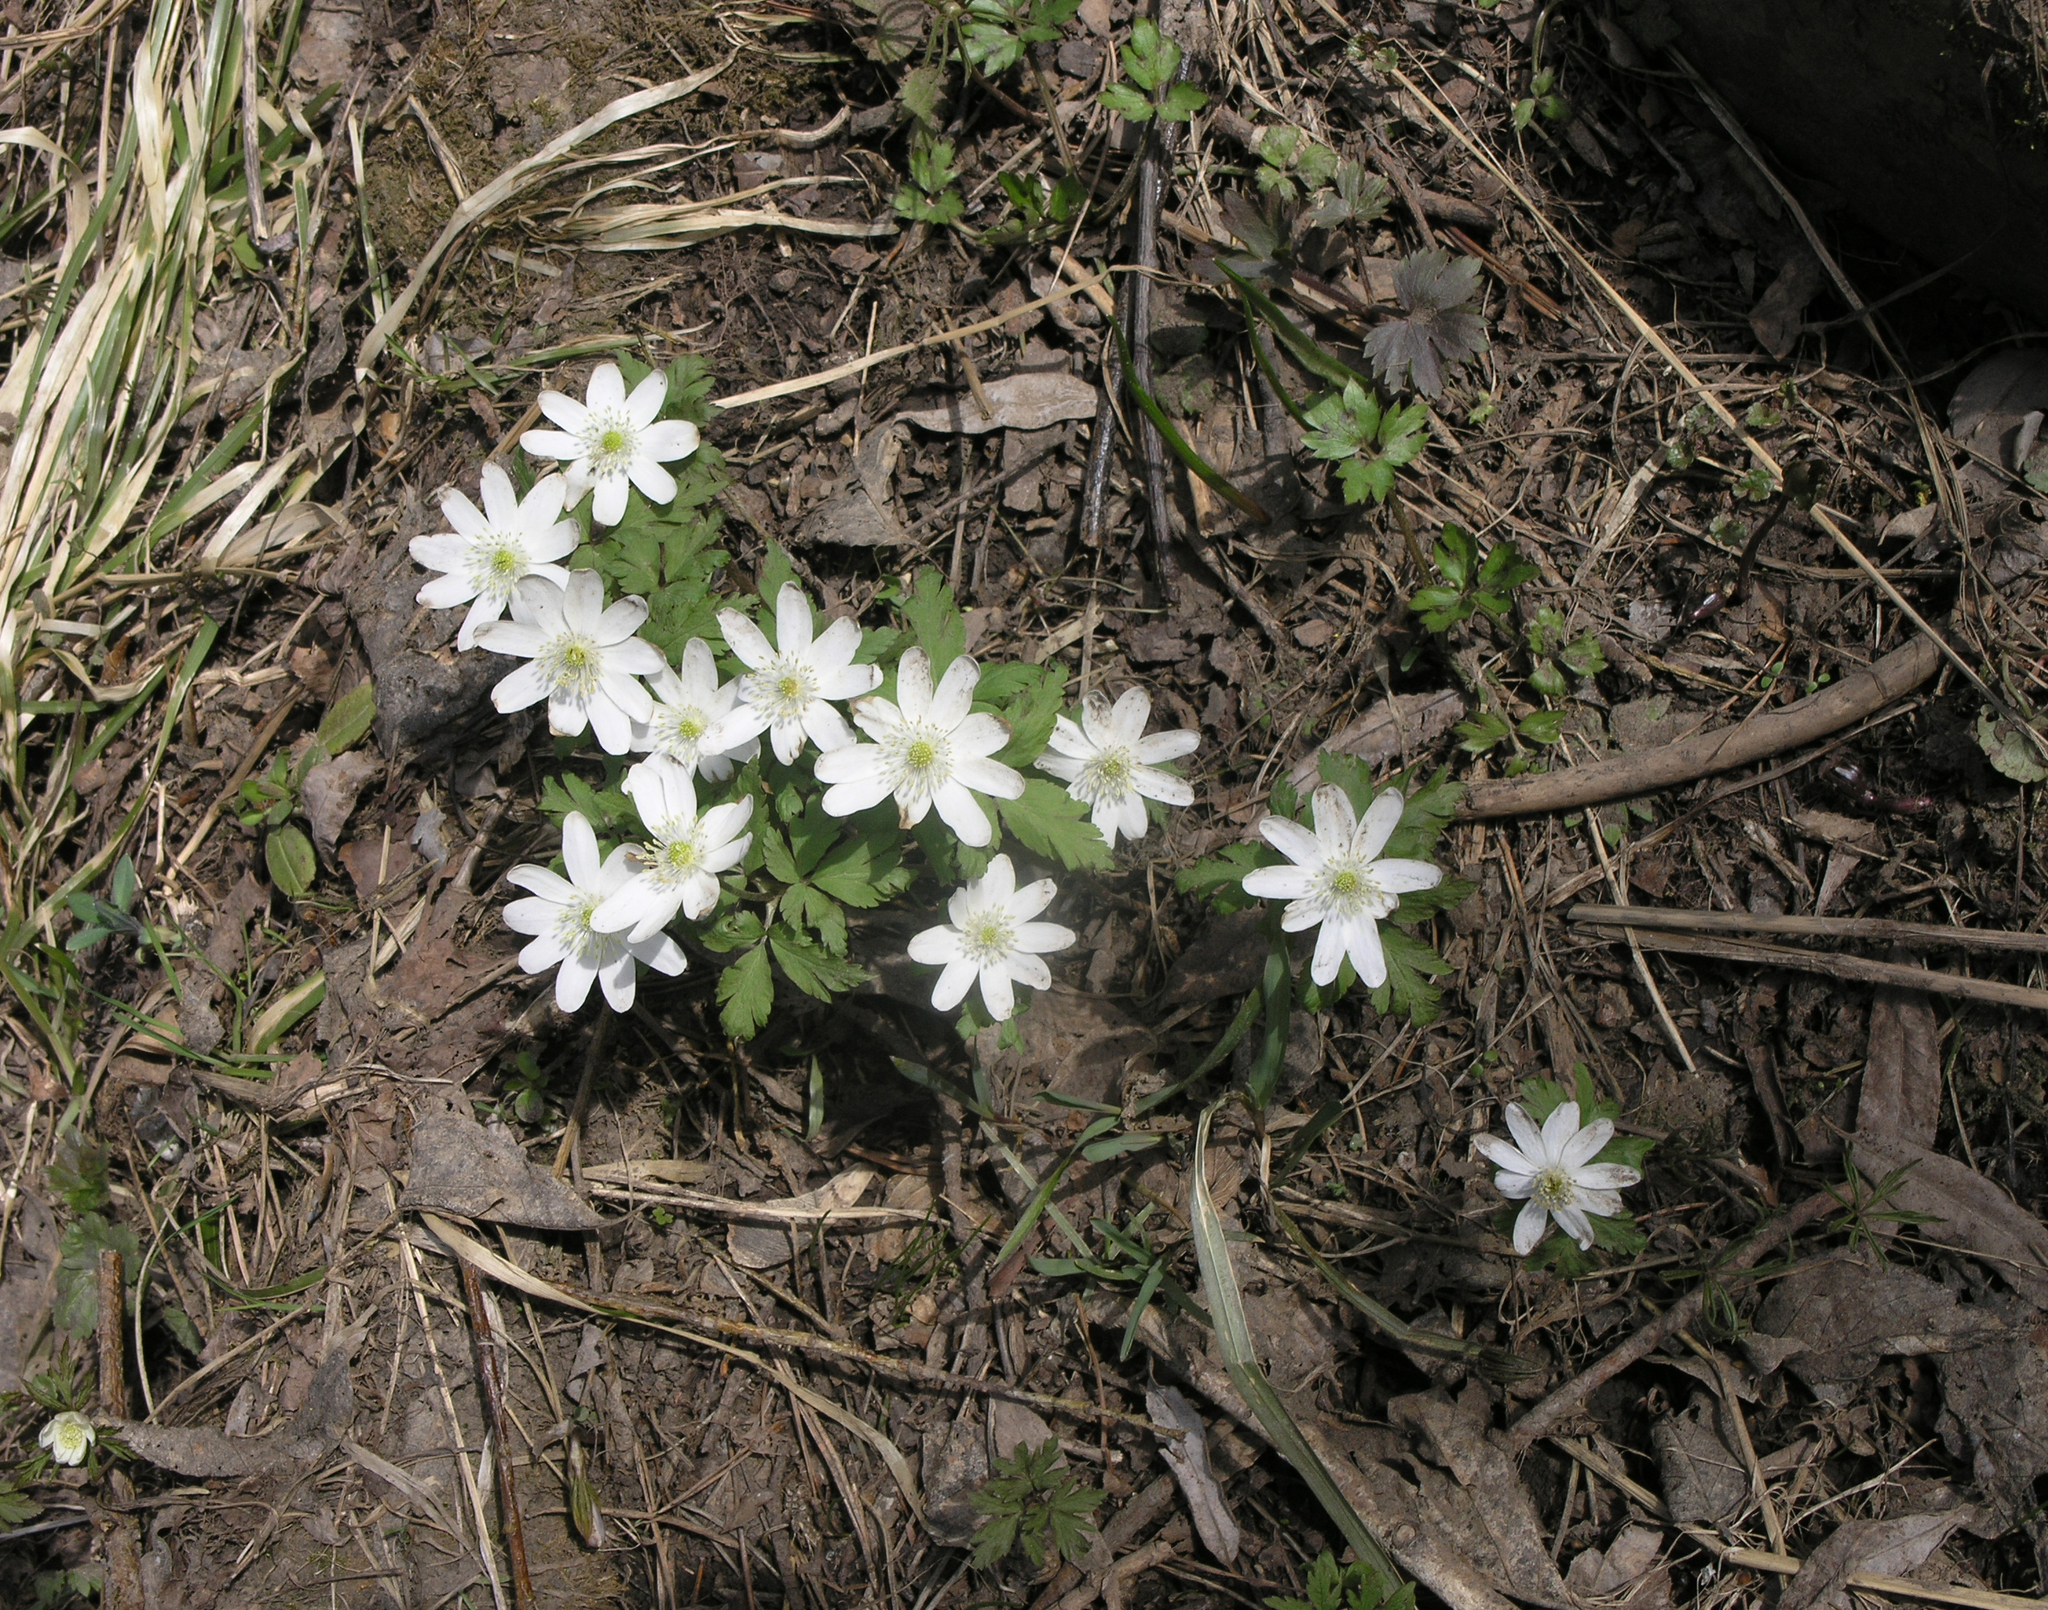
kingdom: Plantae
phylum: Tracheophyta
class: Magnoliopsida
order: Ranunculales
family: Ranunculaceae
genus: Anemone
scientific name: Anemone altaica
